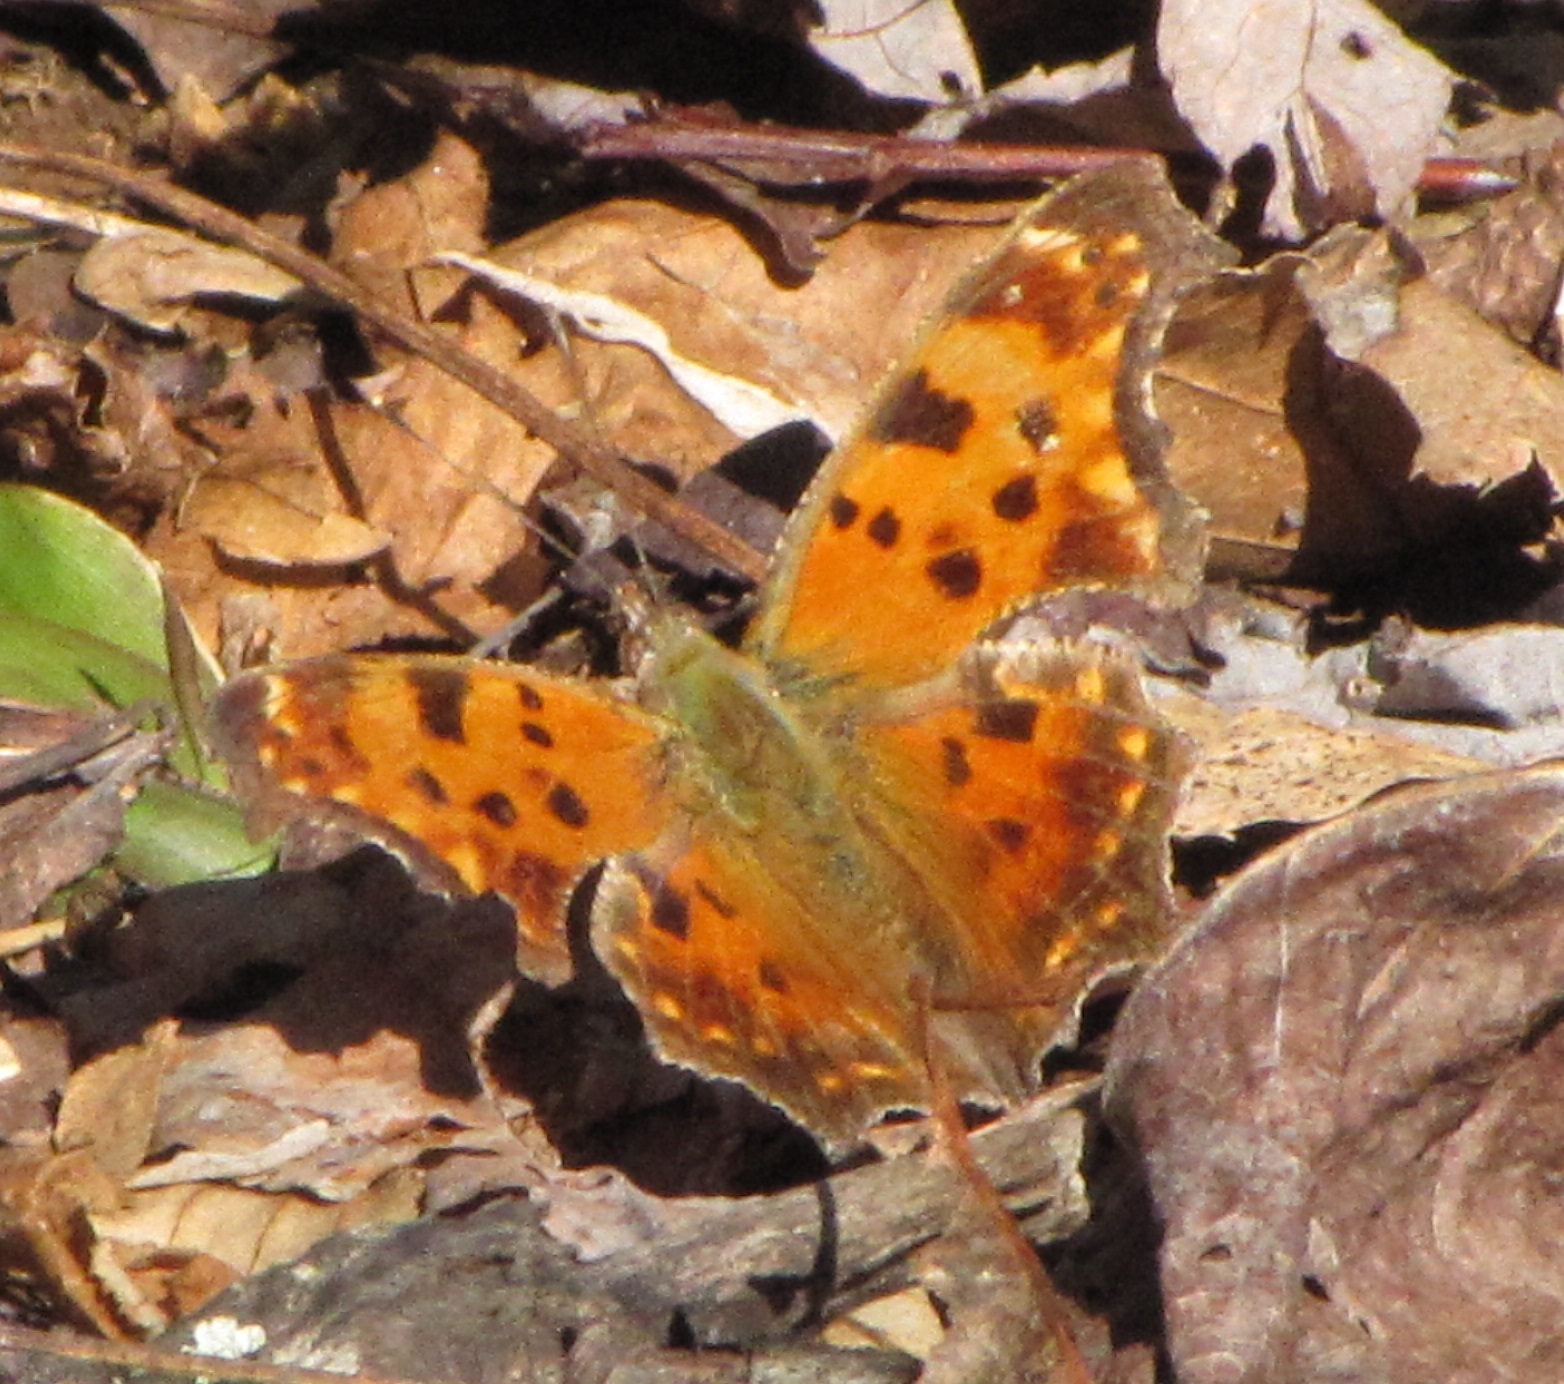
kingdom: Animalia
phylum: Arthropoda
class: Insecta
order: Lepidoptera
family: Nymphalidae
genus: Polygonia
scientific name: Polygonia comma
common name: Eastern comma
